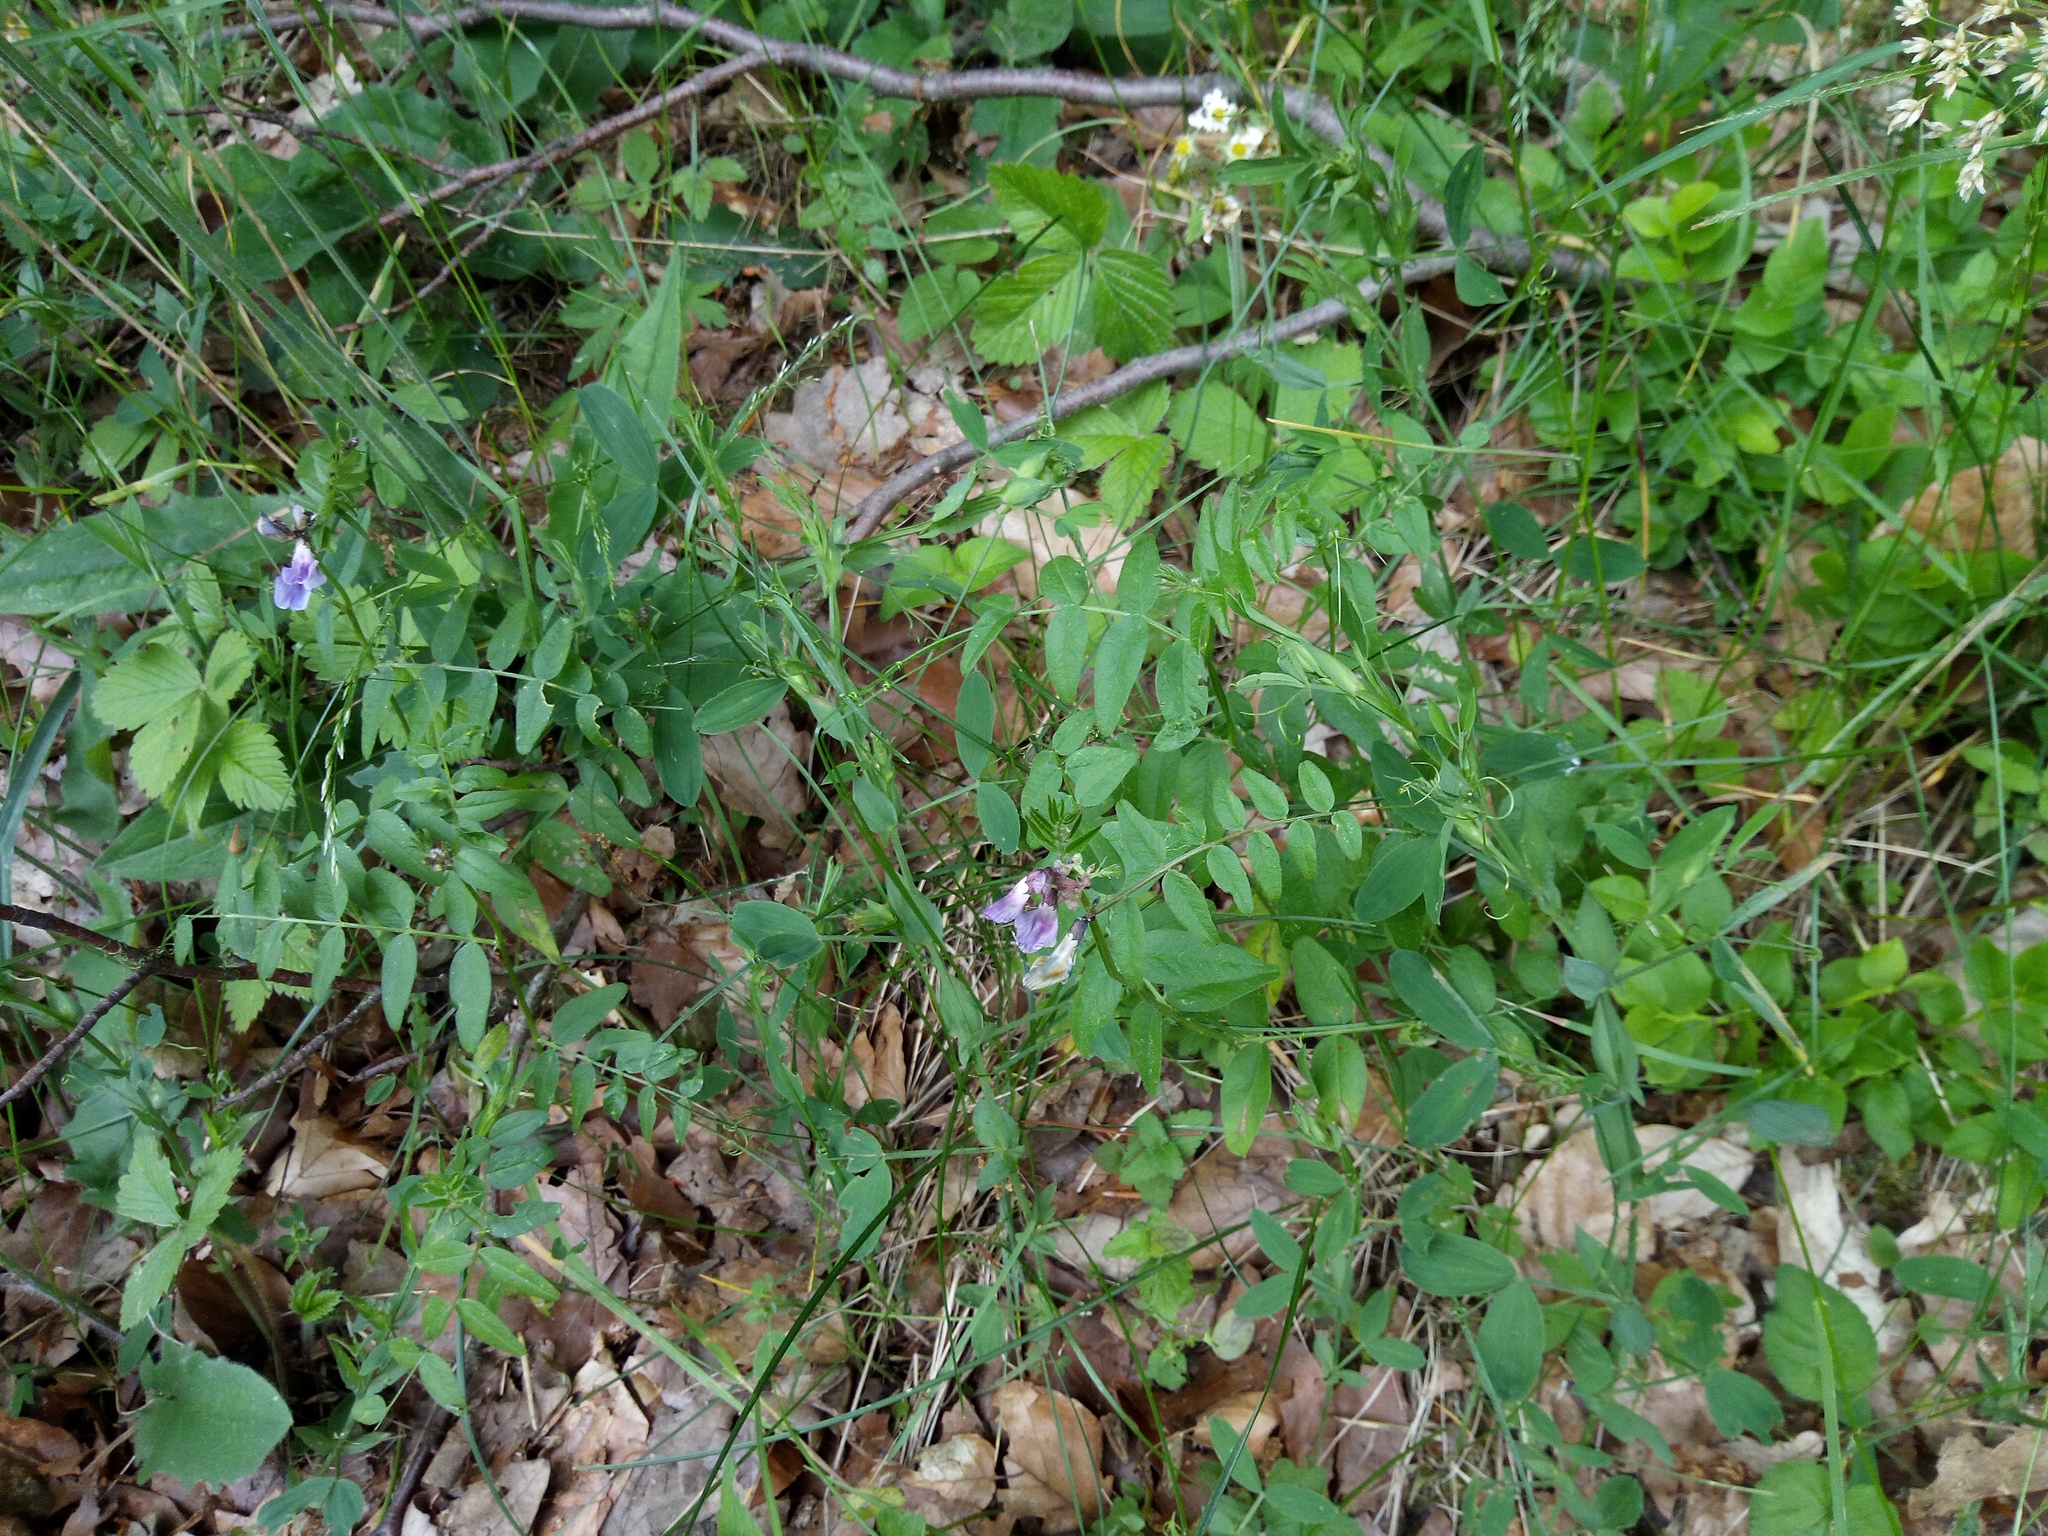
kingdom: Plantae
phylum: Tracheophyta
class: Magnoliopsida
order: Fabales
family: Fabaceae
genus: Vicia
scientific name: Vicia sepium
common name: Bush vetch
